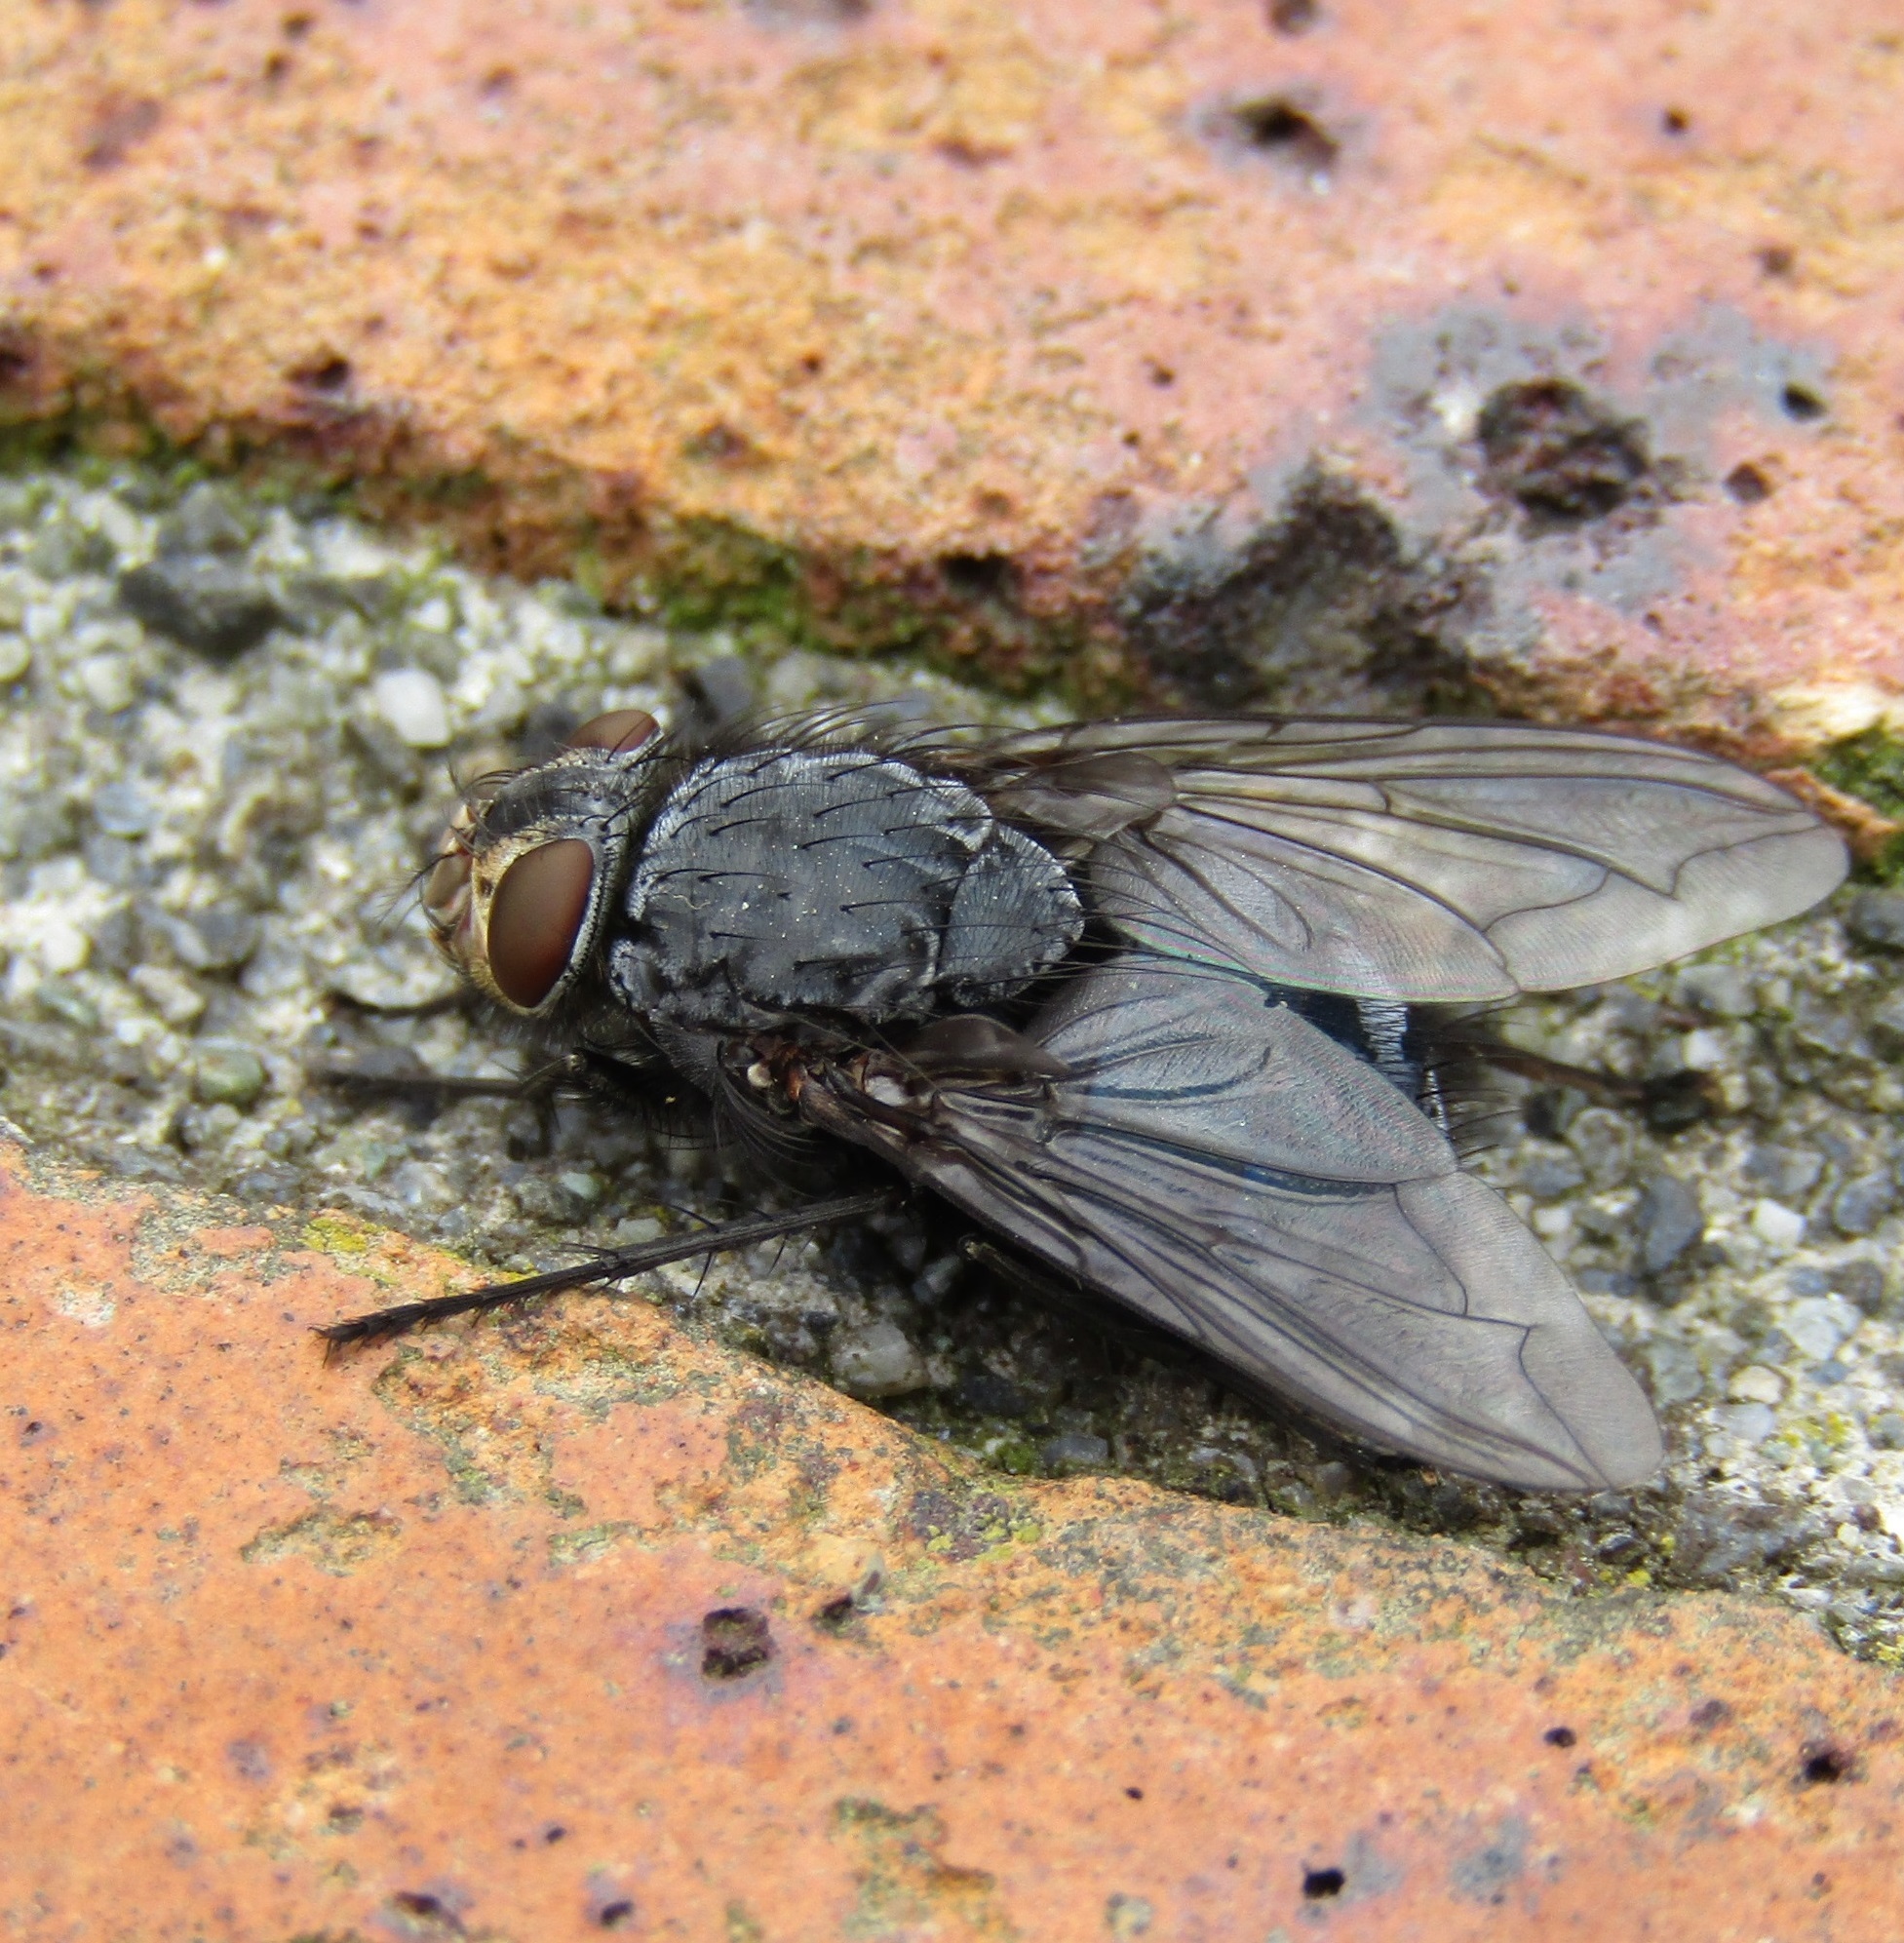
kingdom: Animalia
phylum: Arthropoda
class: Insecta
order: Diptera
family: Calliphoridae
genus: Calliphora
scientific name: Calliphora vicina
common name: Common blow flie
